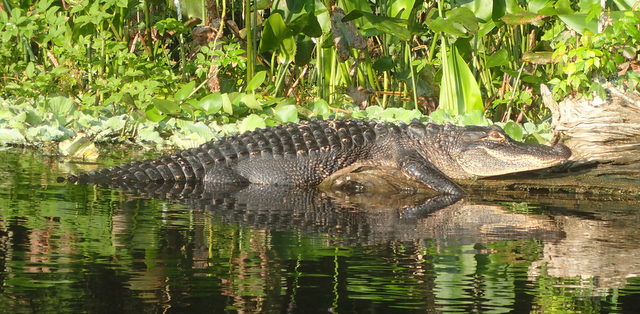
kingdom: Animalia
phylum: Chordata
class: Crocodylia
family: Alligatoridae
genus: Alligator
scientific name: Alligator mississippiensis
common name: American alligator
